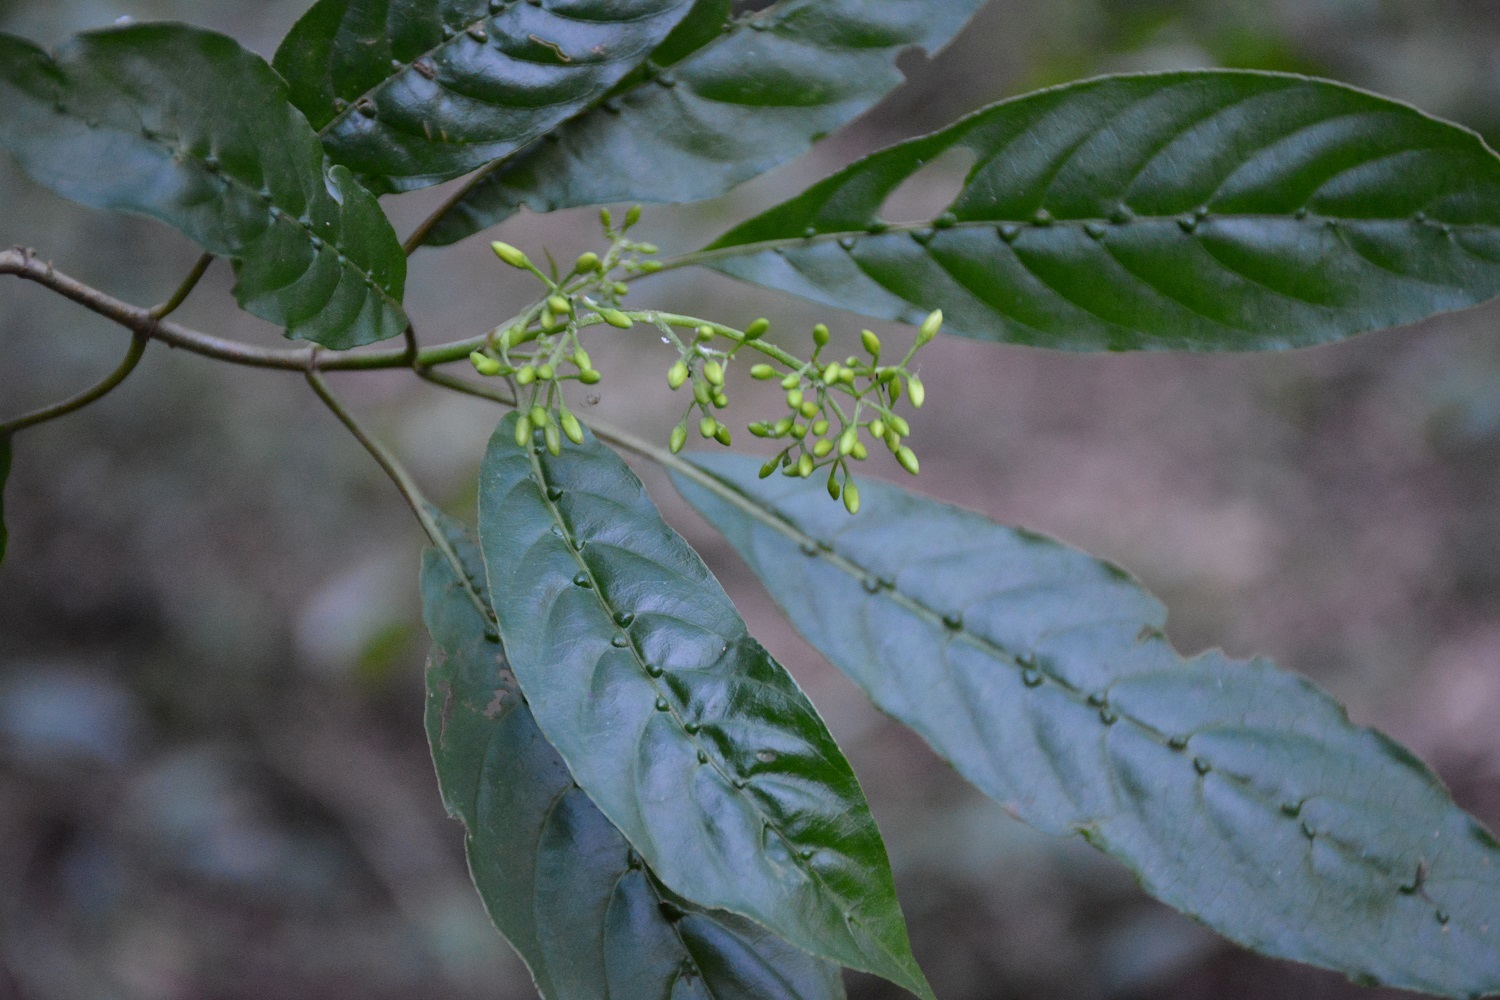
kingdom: Plantae
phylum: Tracheophyta
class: Magnoliopsida
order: Gentianales
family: Rubiaceae
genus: Deppea
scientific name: Deppea grandiflora
